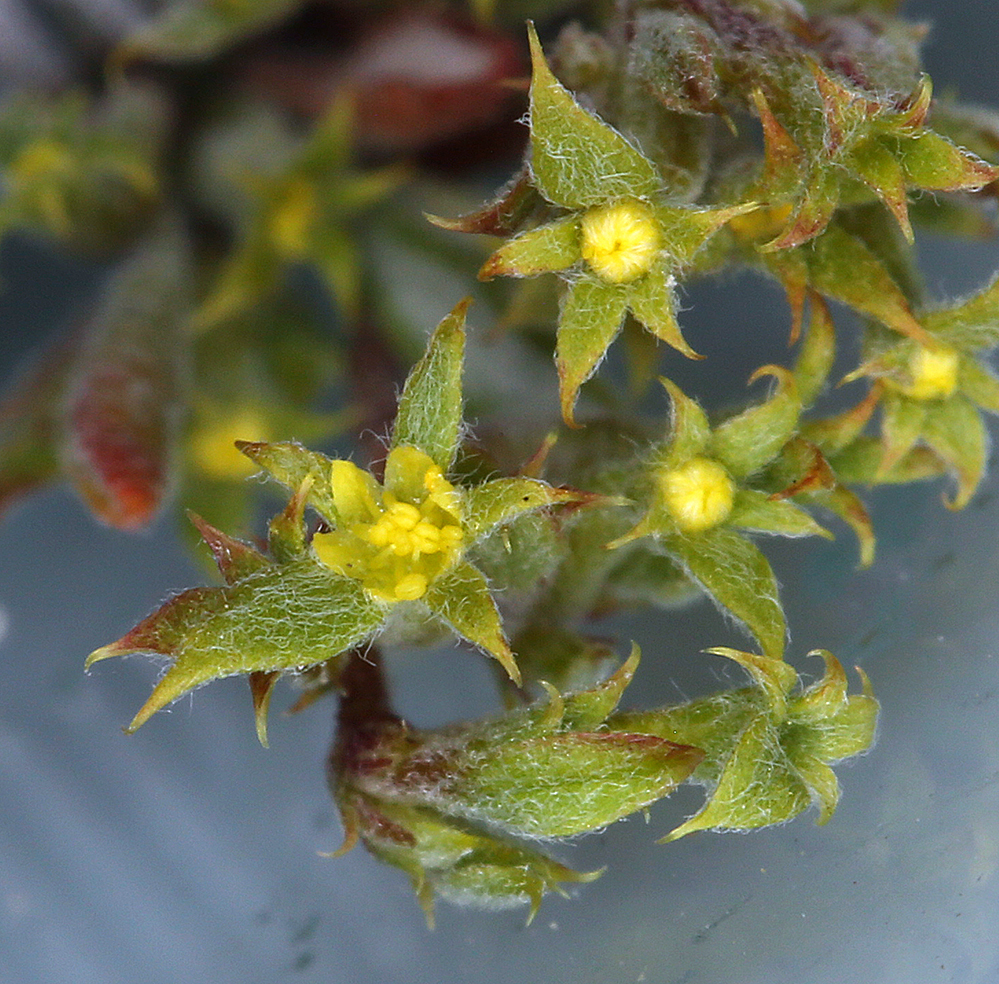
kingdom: Plantae
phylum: Tracheophyta
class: Magnoliopsida
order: Caryophyllales
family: Polygonaceae
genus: Chorizanthe
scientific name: Chorizanthe watsonii
